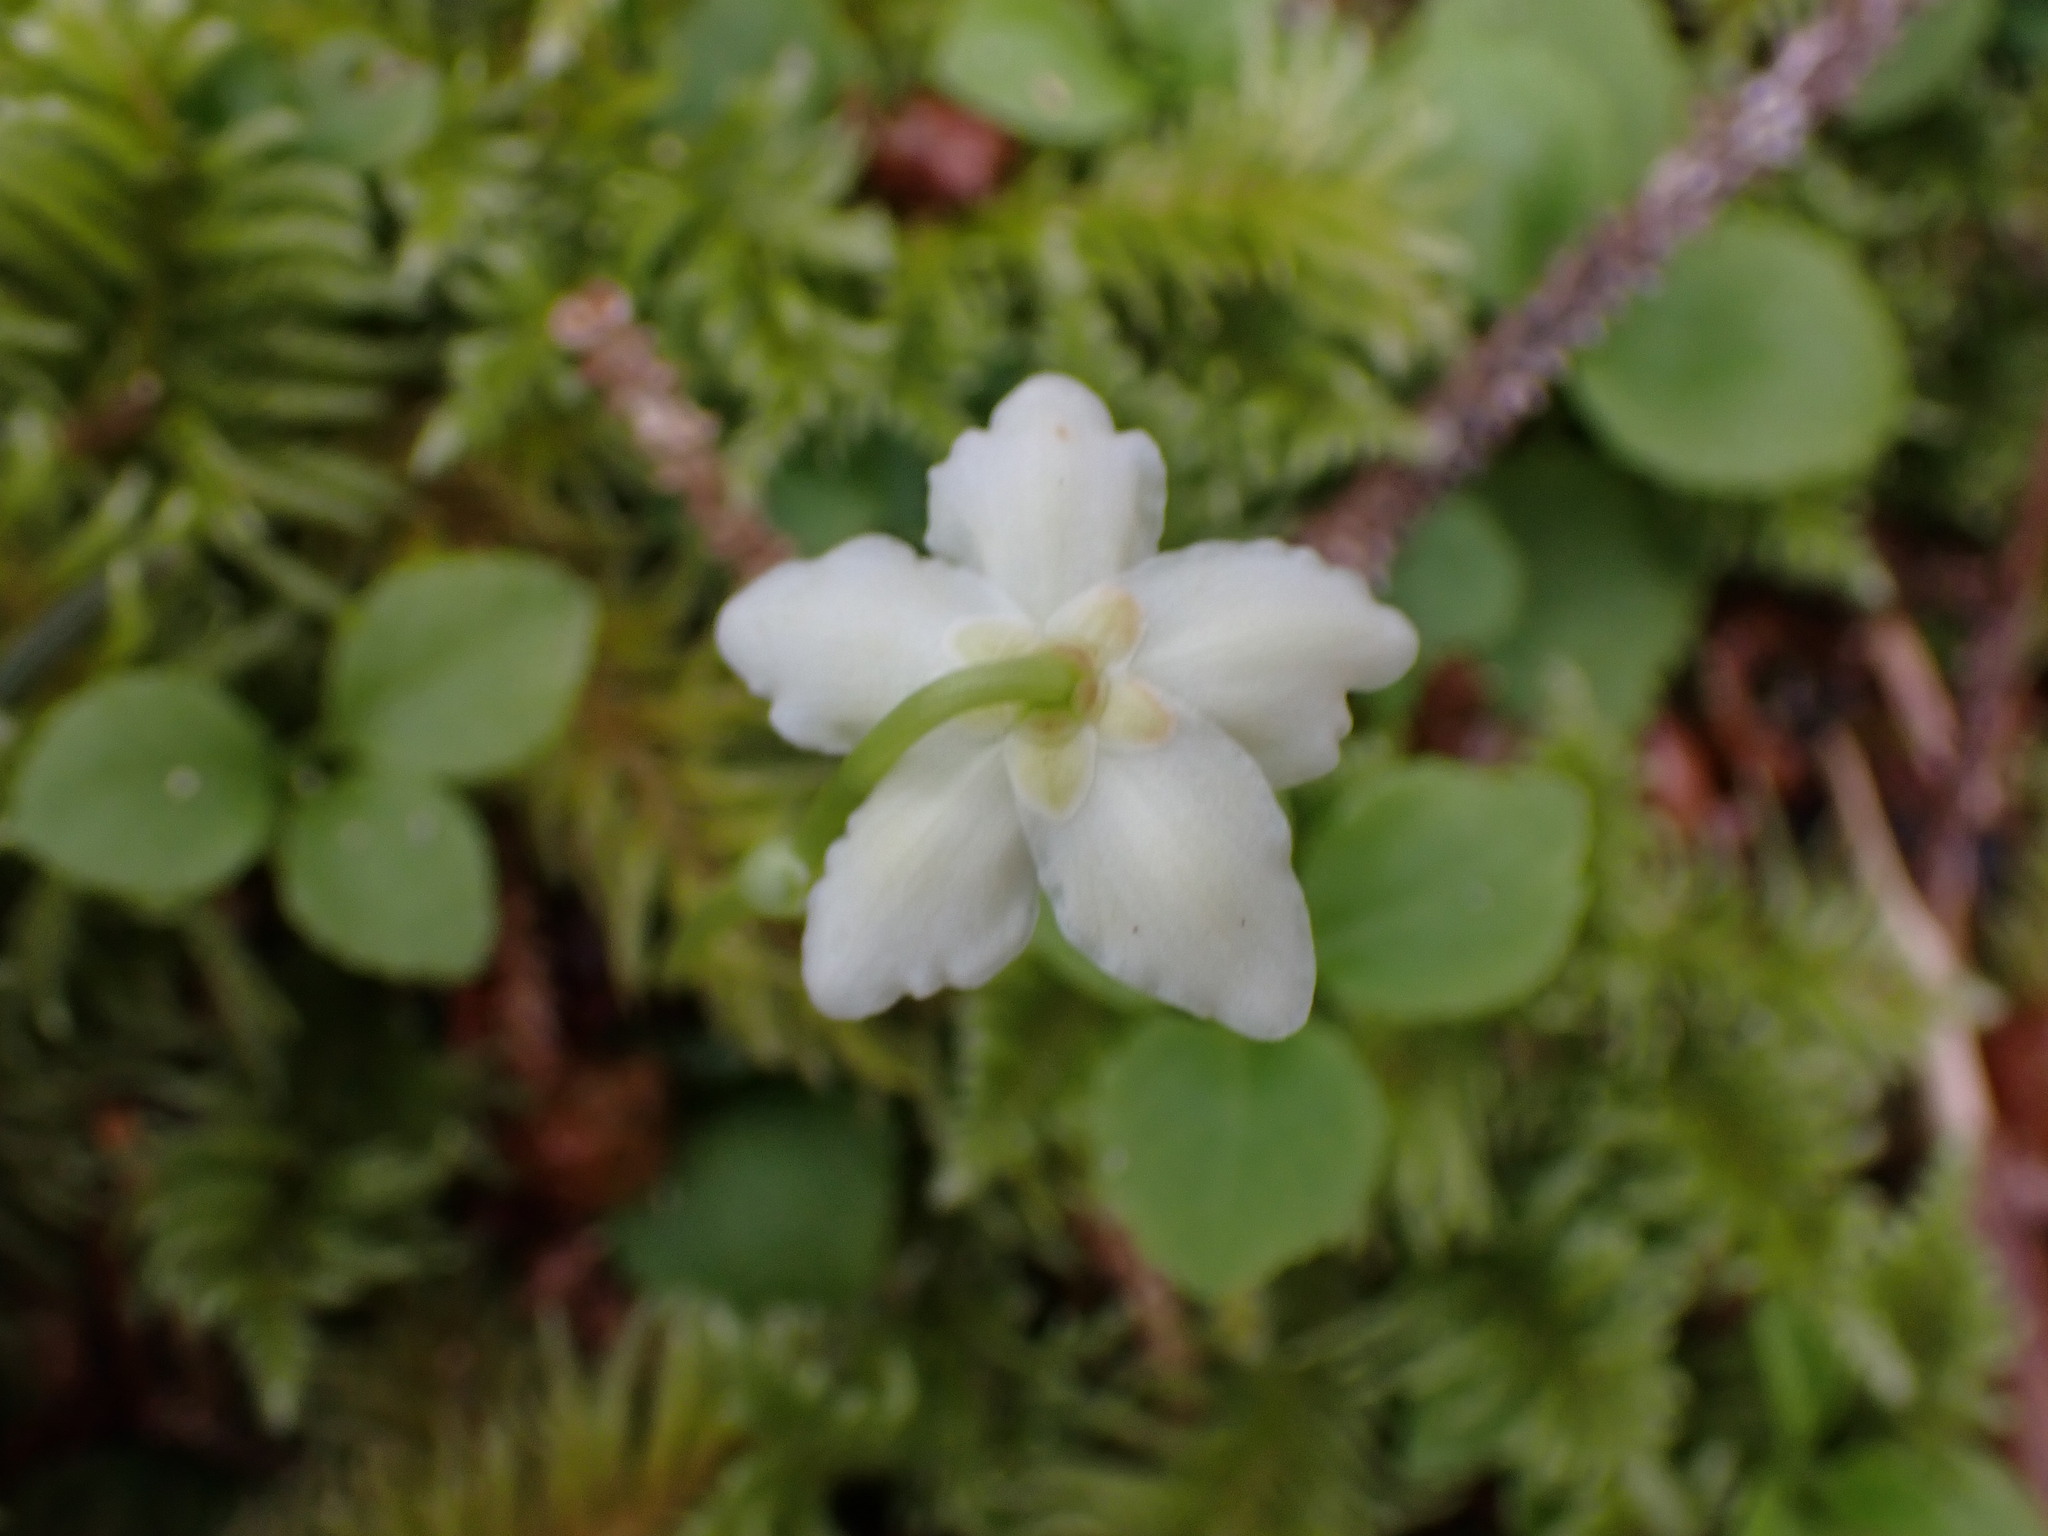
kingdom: Plantae
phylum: Tracheophyta
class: Magnoliopsida
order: Ericales
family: Ericaceae
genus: Moneses
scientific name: Moneses uniflora
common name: One-flowered wintergreen
